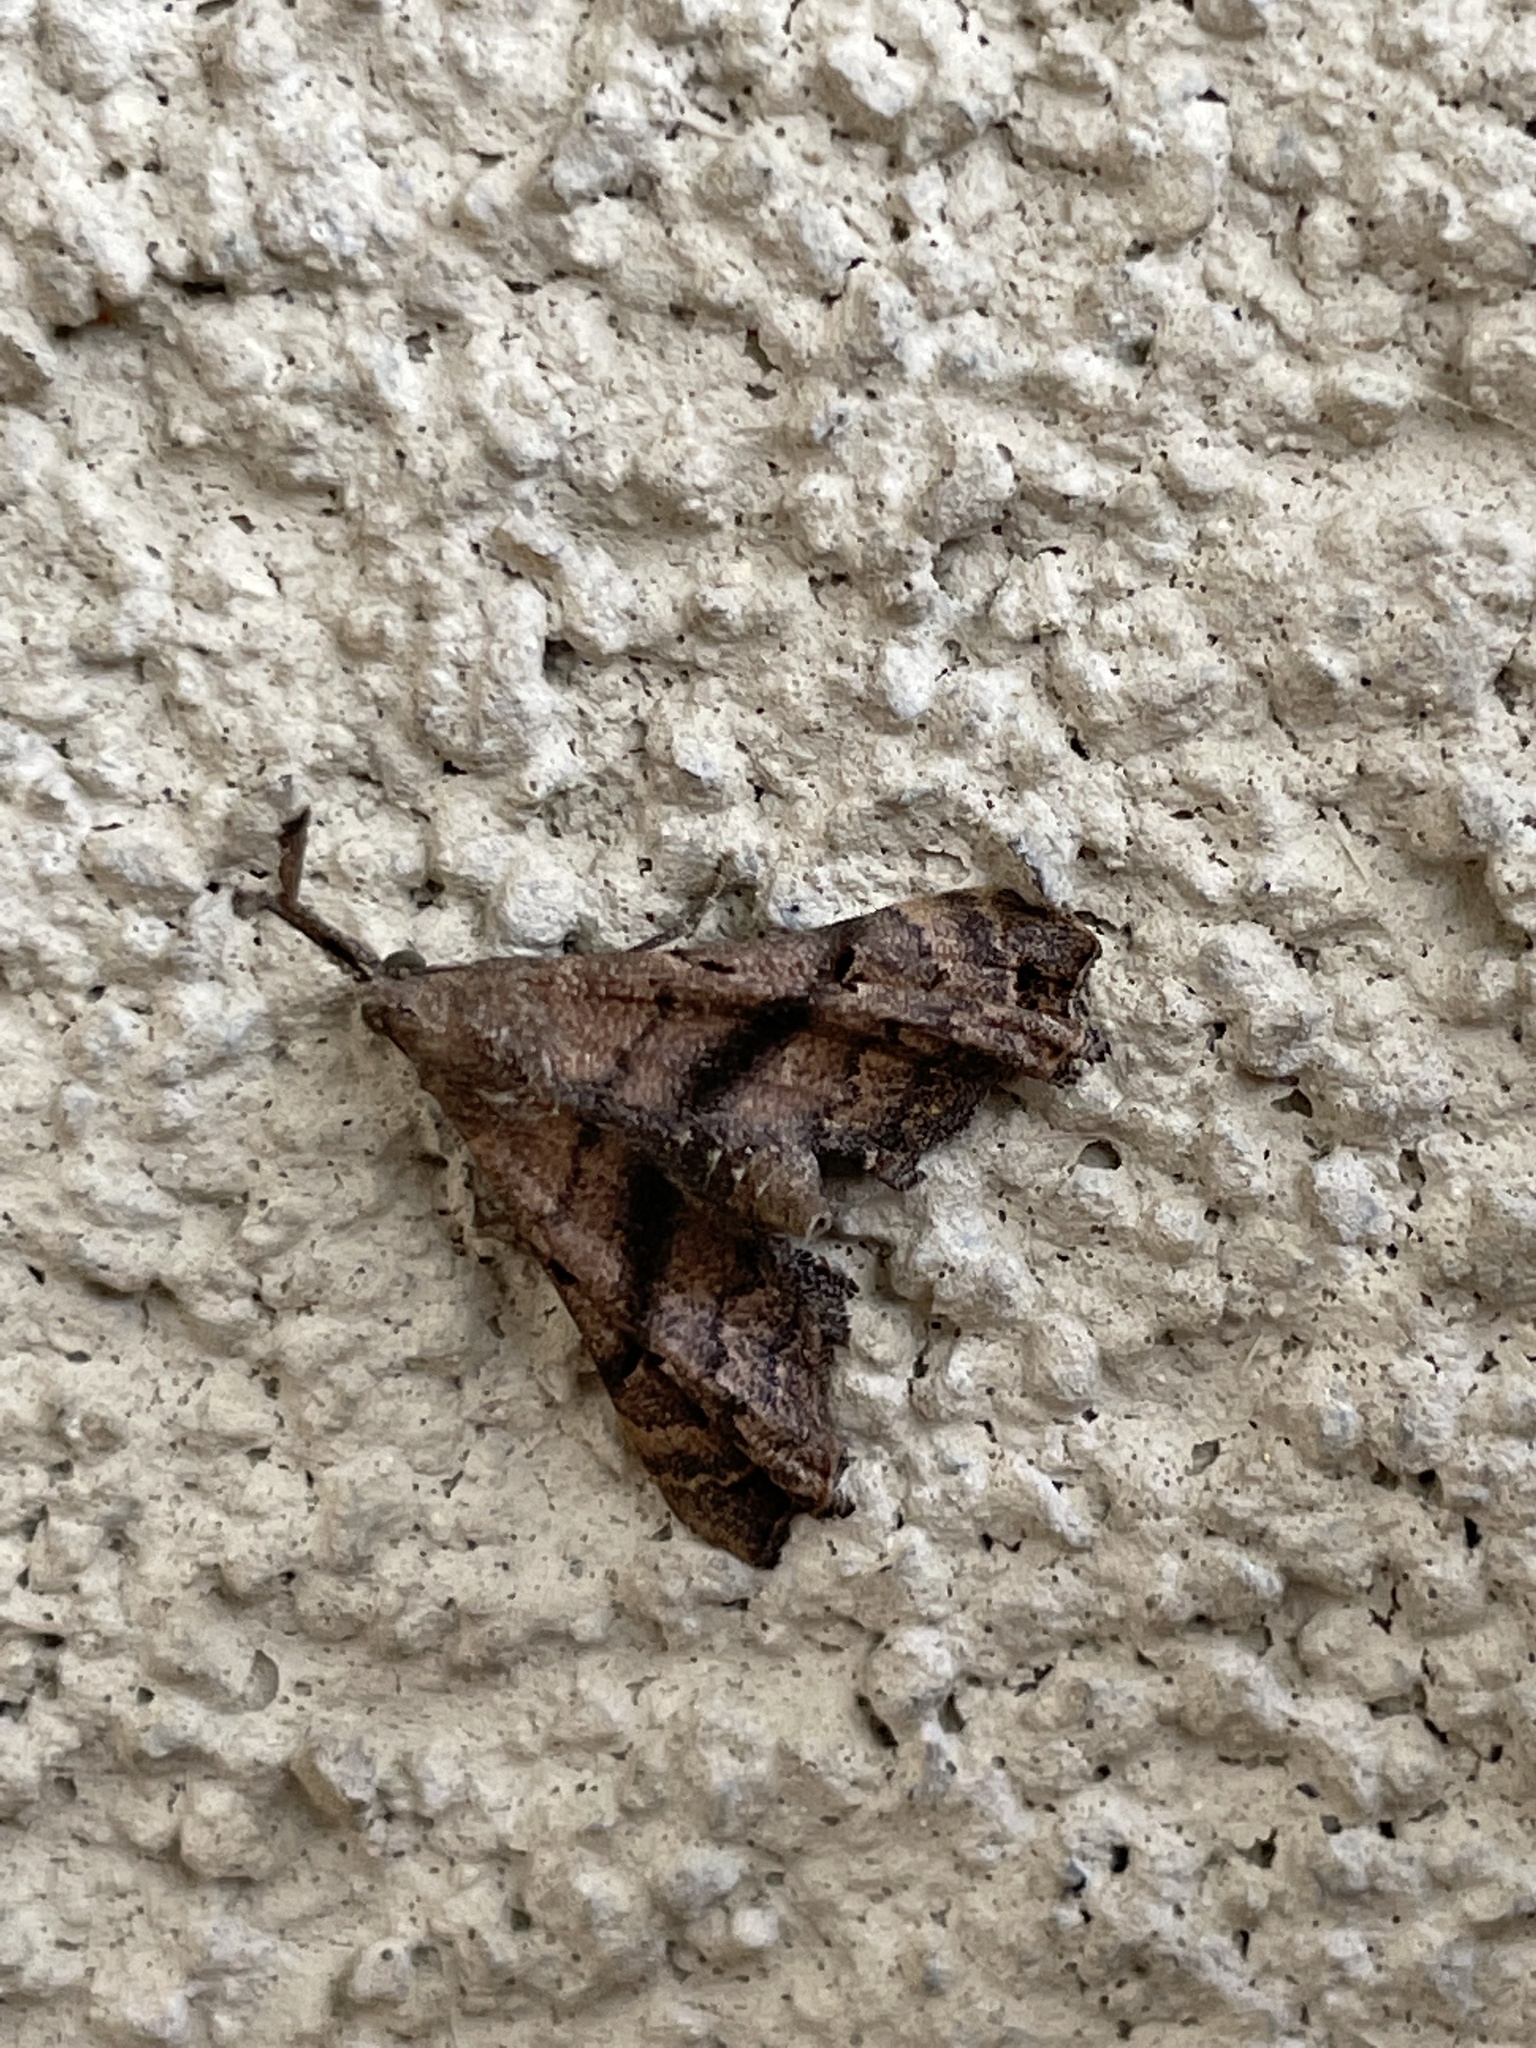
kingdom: Animalia
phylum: Arthropoda
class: Insecta
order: Lepidoptera
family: Erebidae
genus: Palthis
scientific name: Palthis asopialis
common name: Faint-spotted palthis moth
